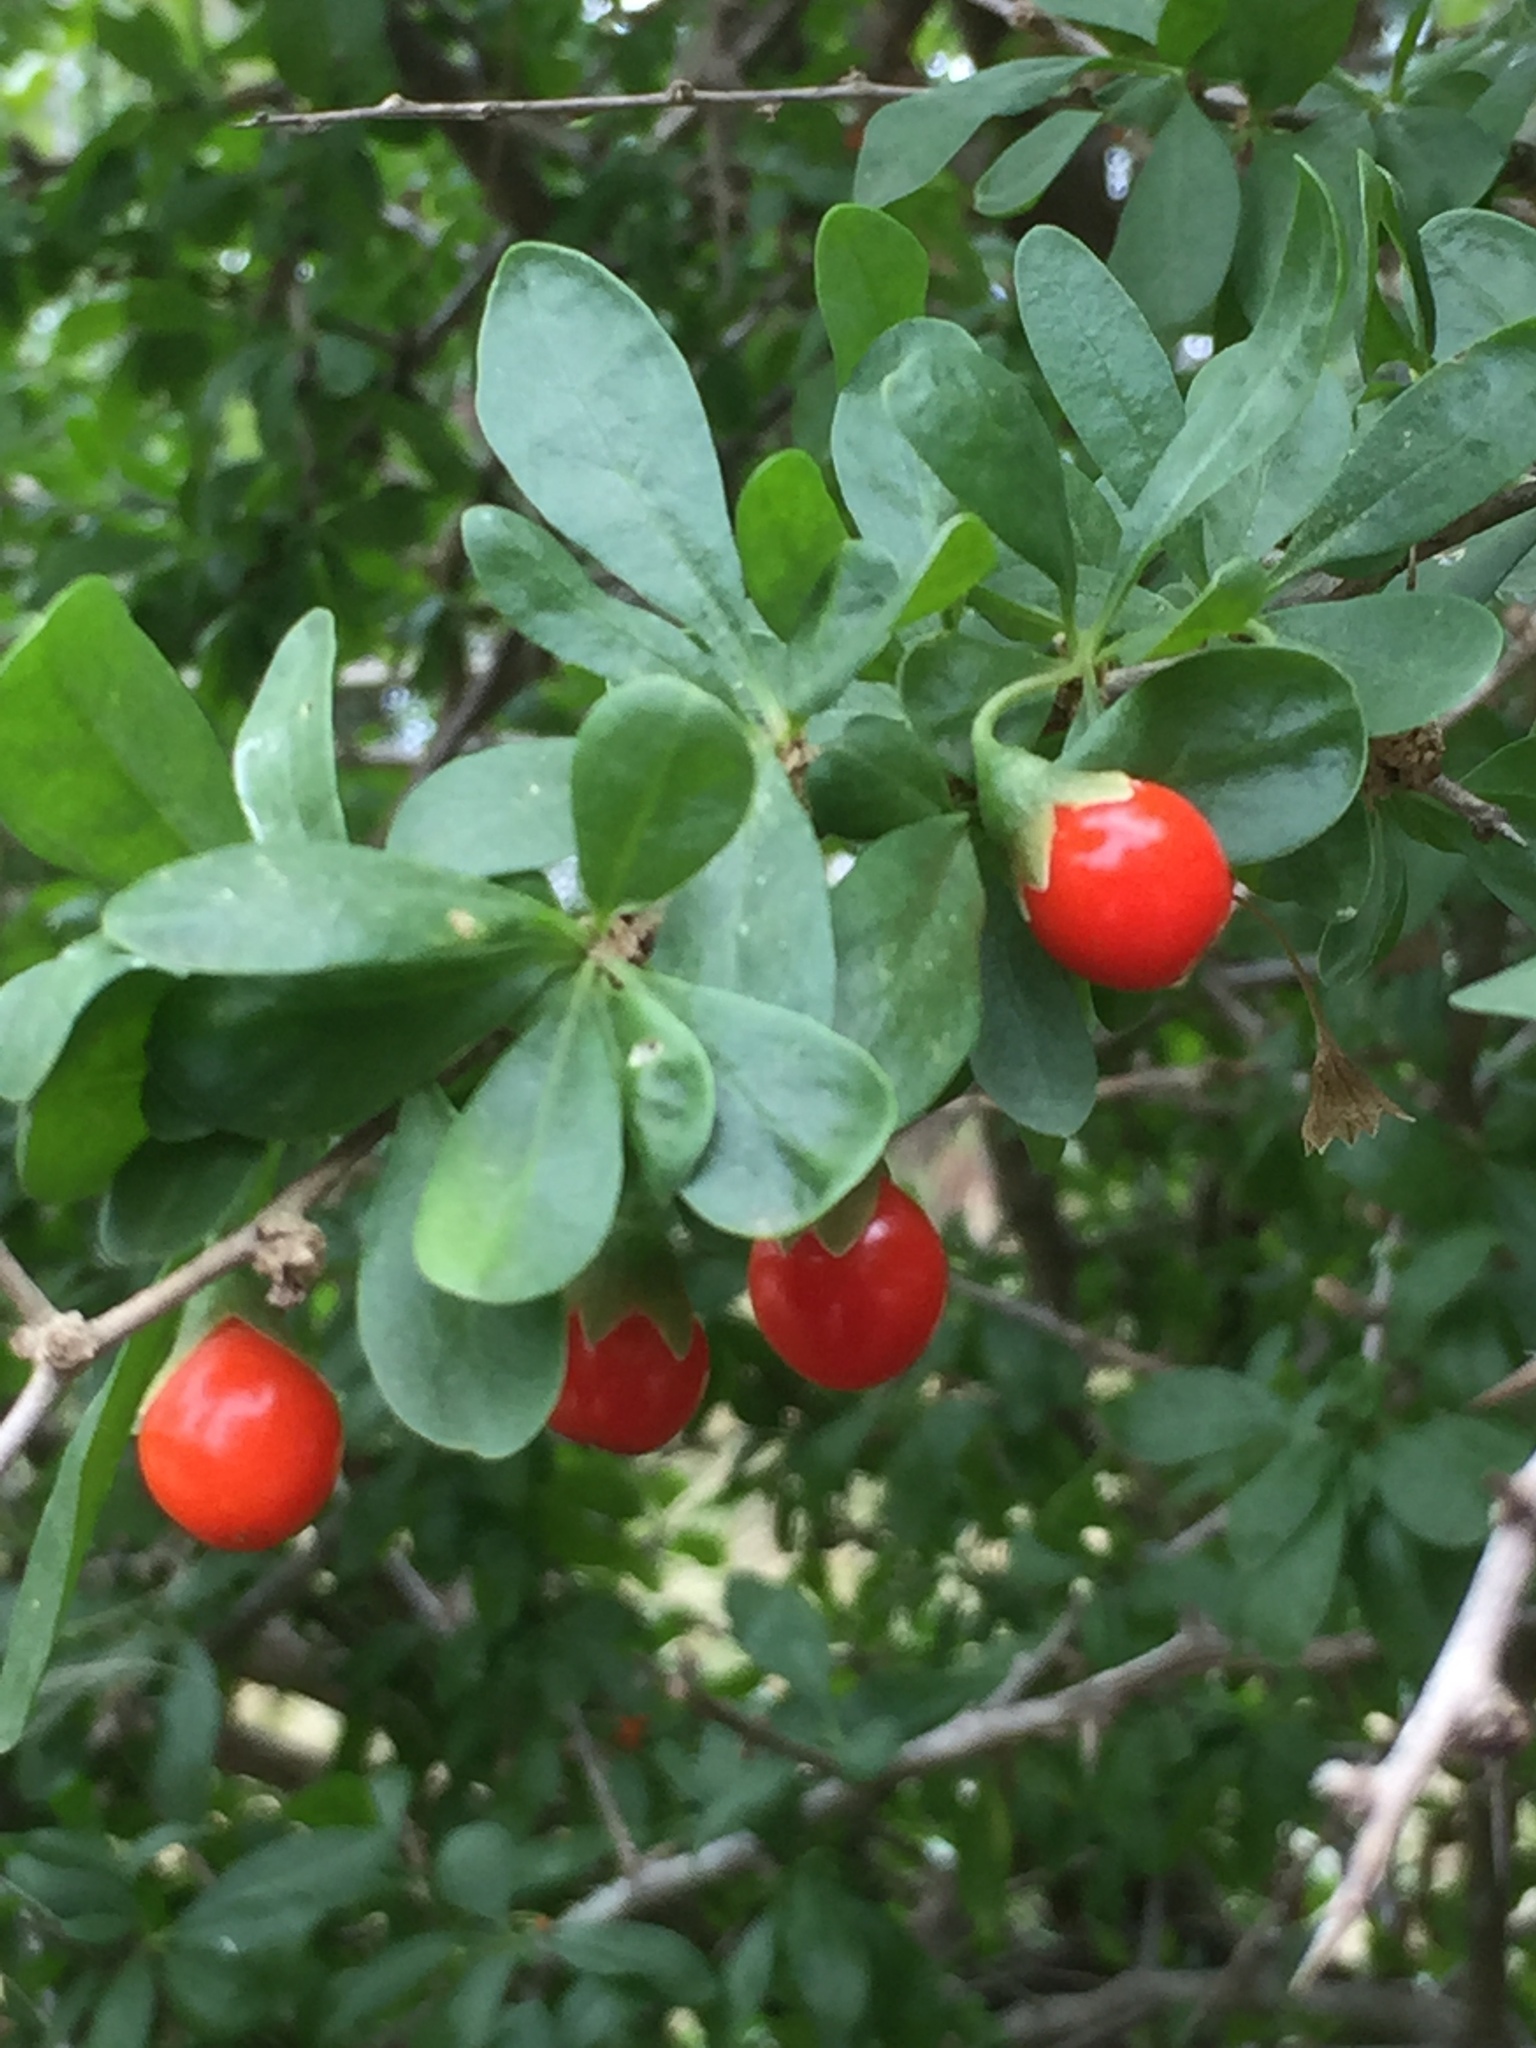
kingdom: Plantae
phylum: Tracheophyta
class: Magnoliopsida
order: Solanales
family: Solanaceae
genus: Lycium
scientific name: Lycium ferocissimum
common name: African boxthorn
